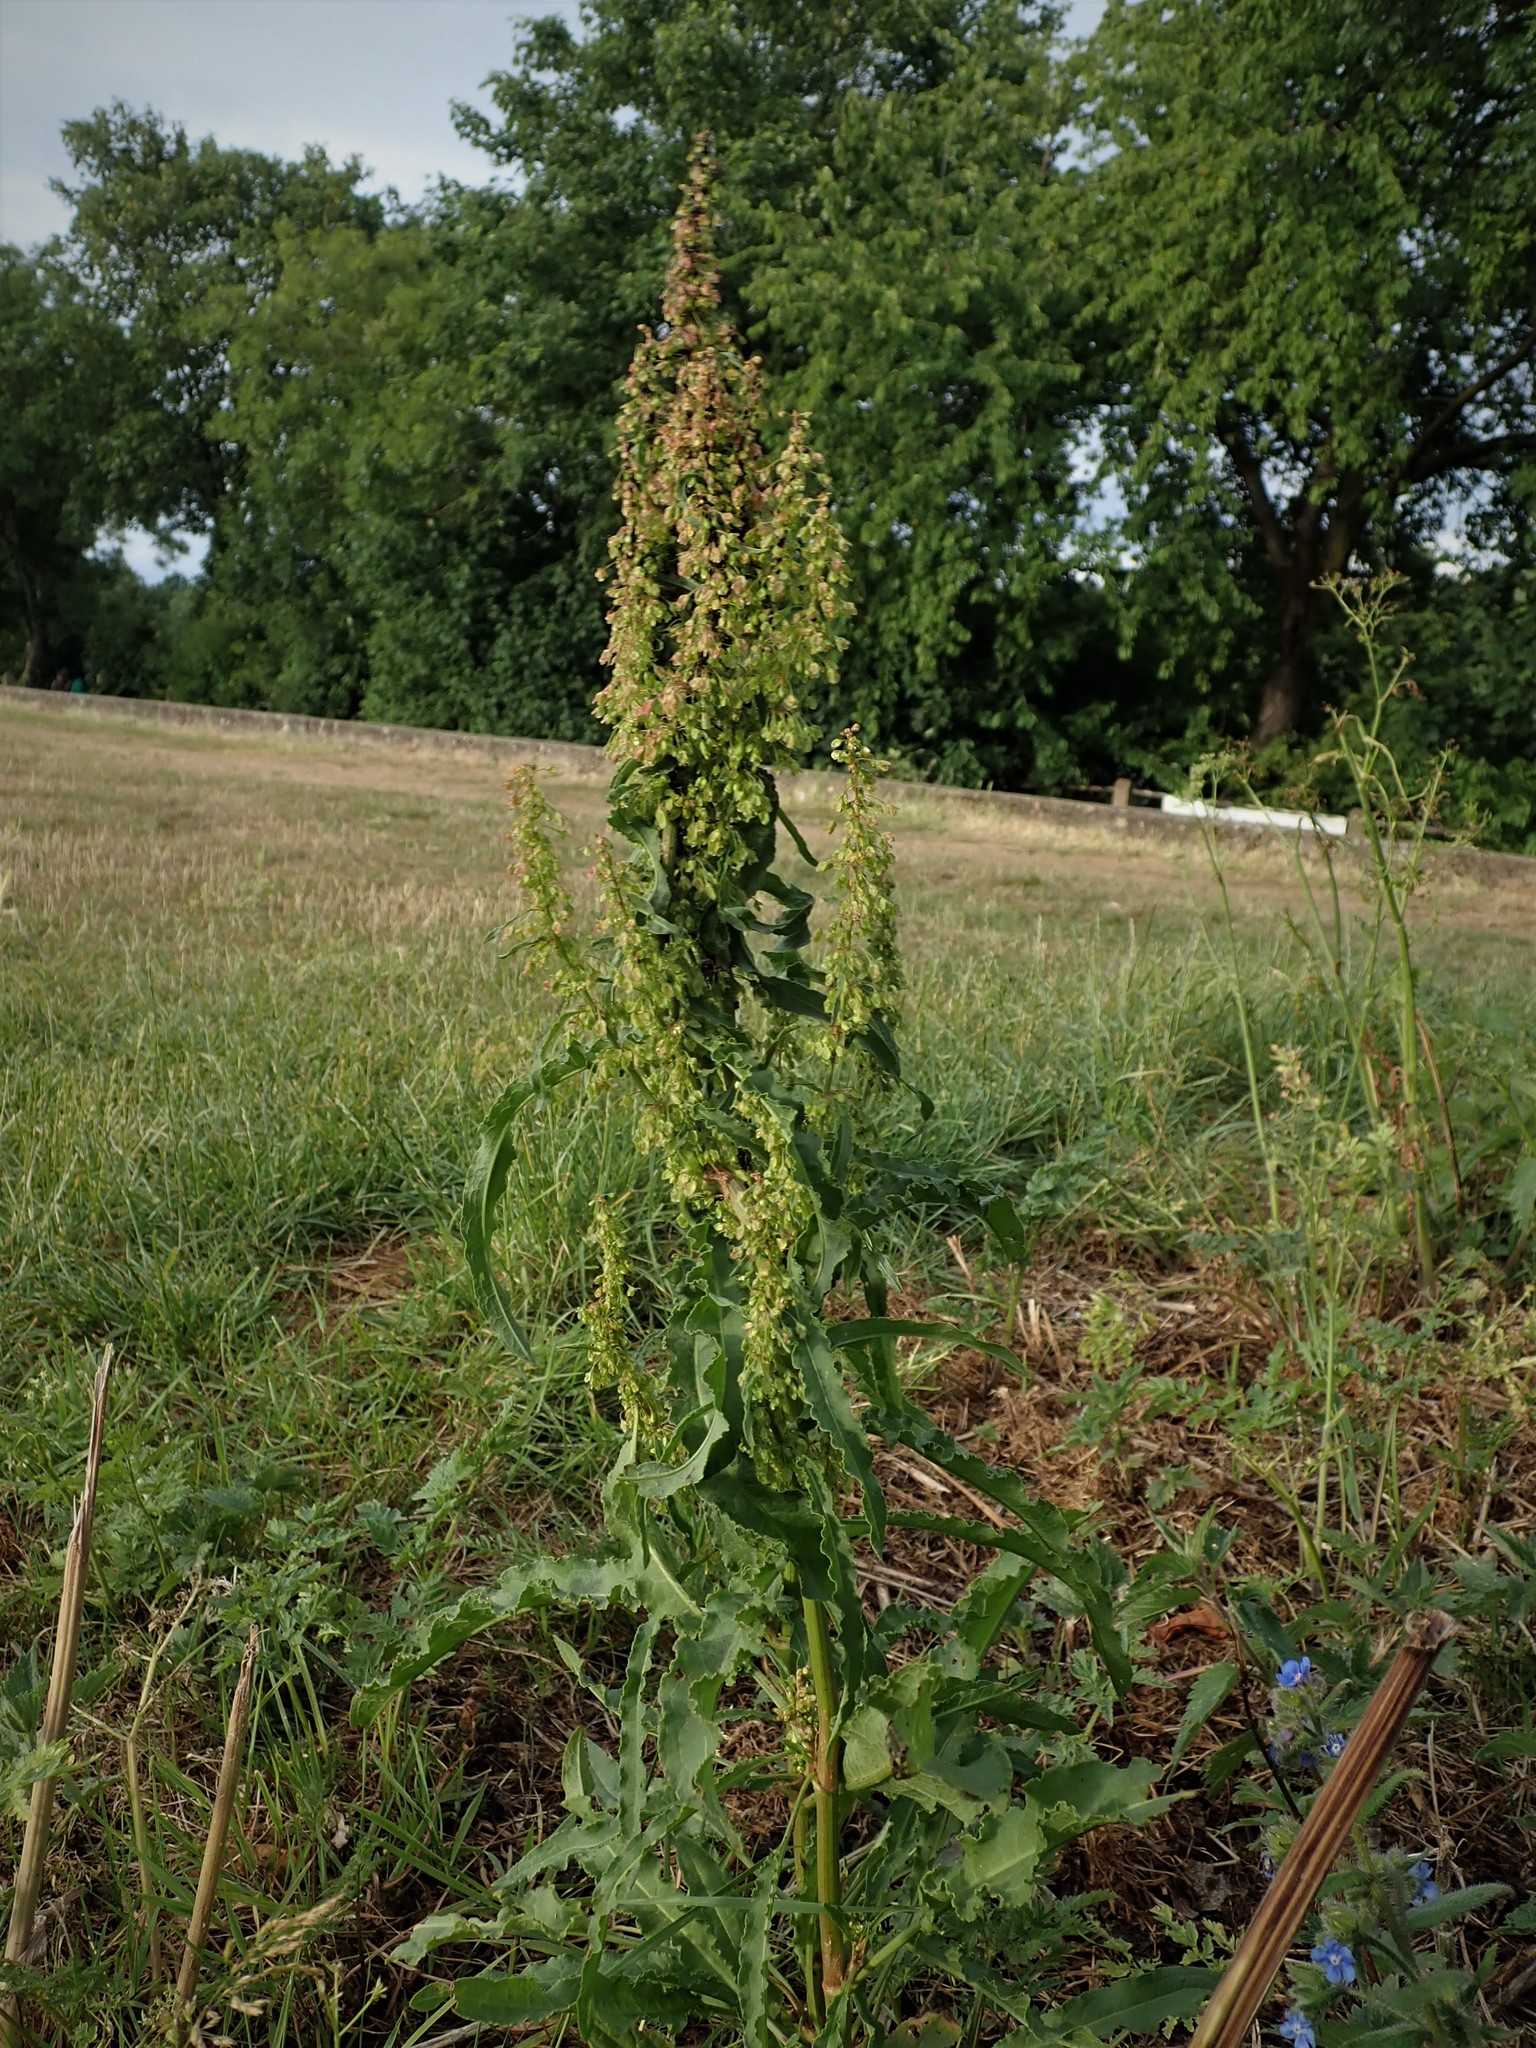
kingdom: Plantae
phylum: Tracheophyta
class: Magnoliopsida
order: Caryophyllales
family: Polygonaceae
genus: Rumex
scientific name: Rumex crispus
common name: Curled dock
